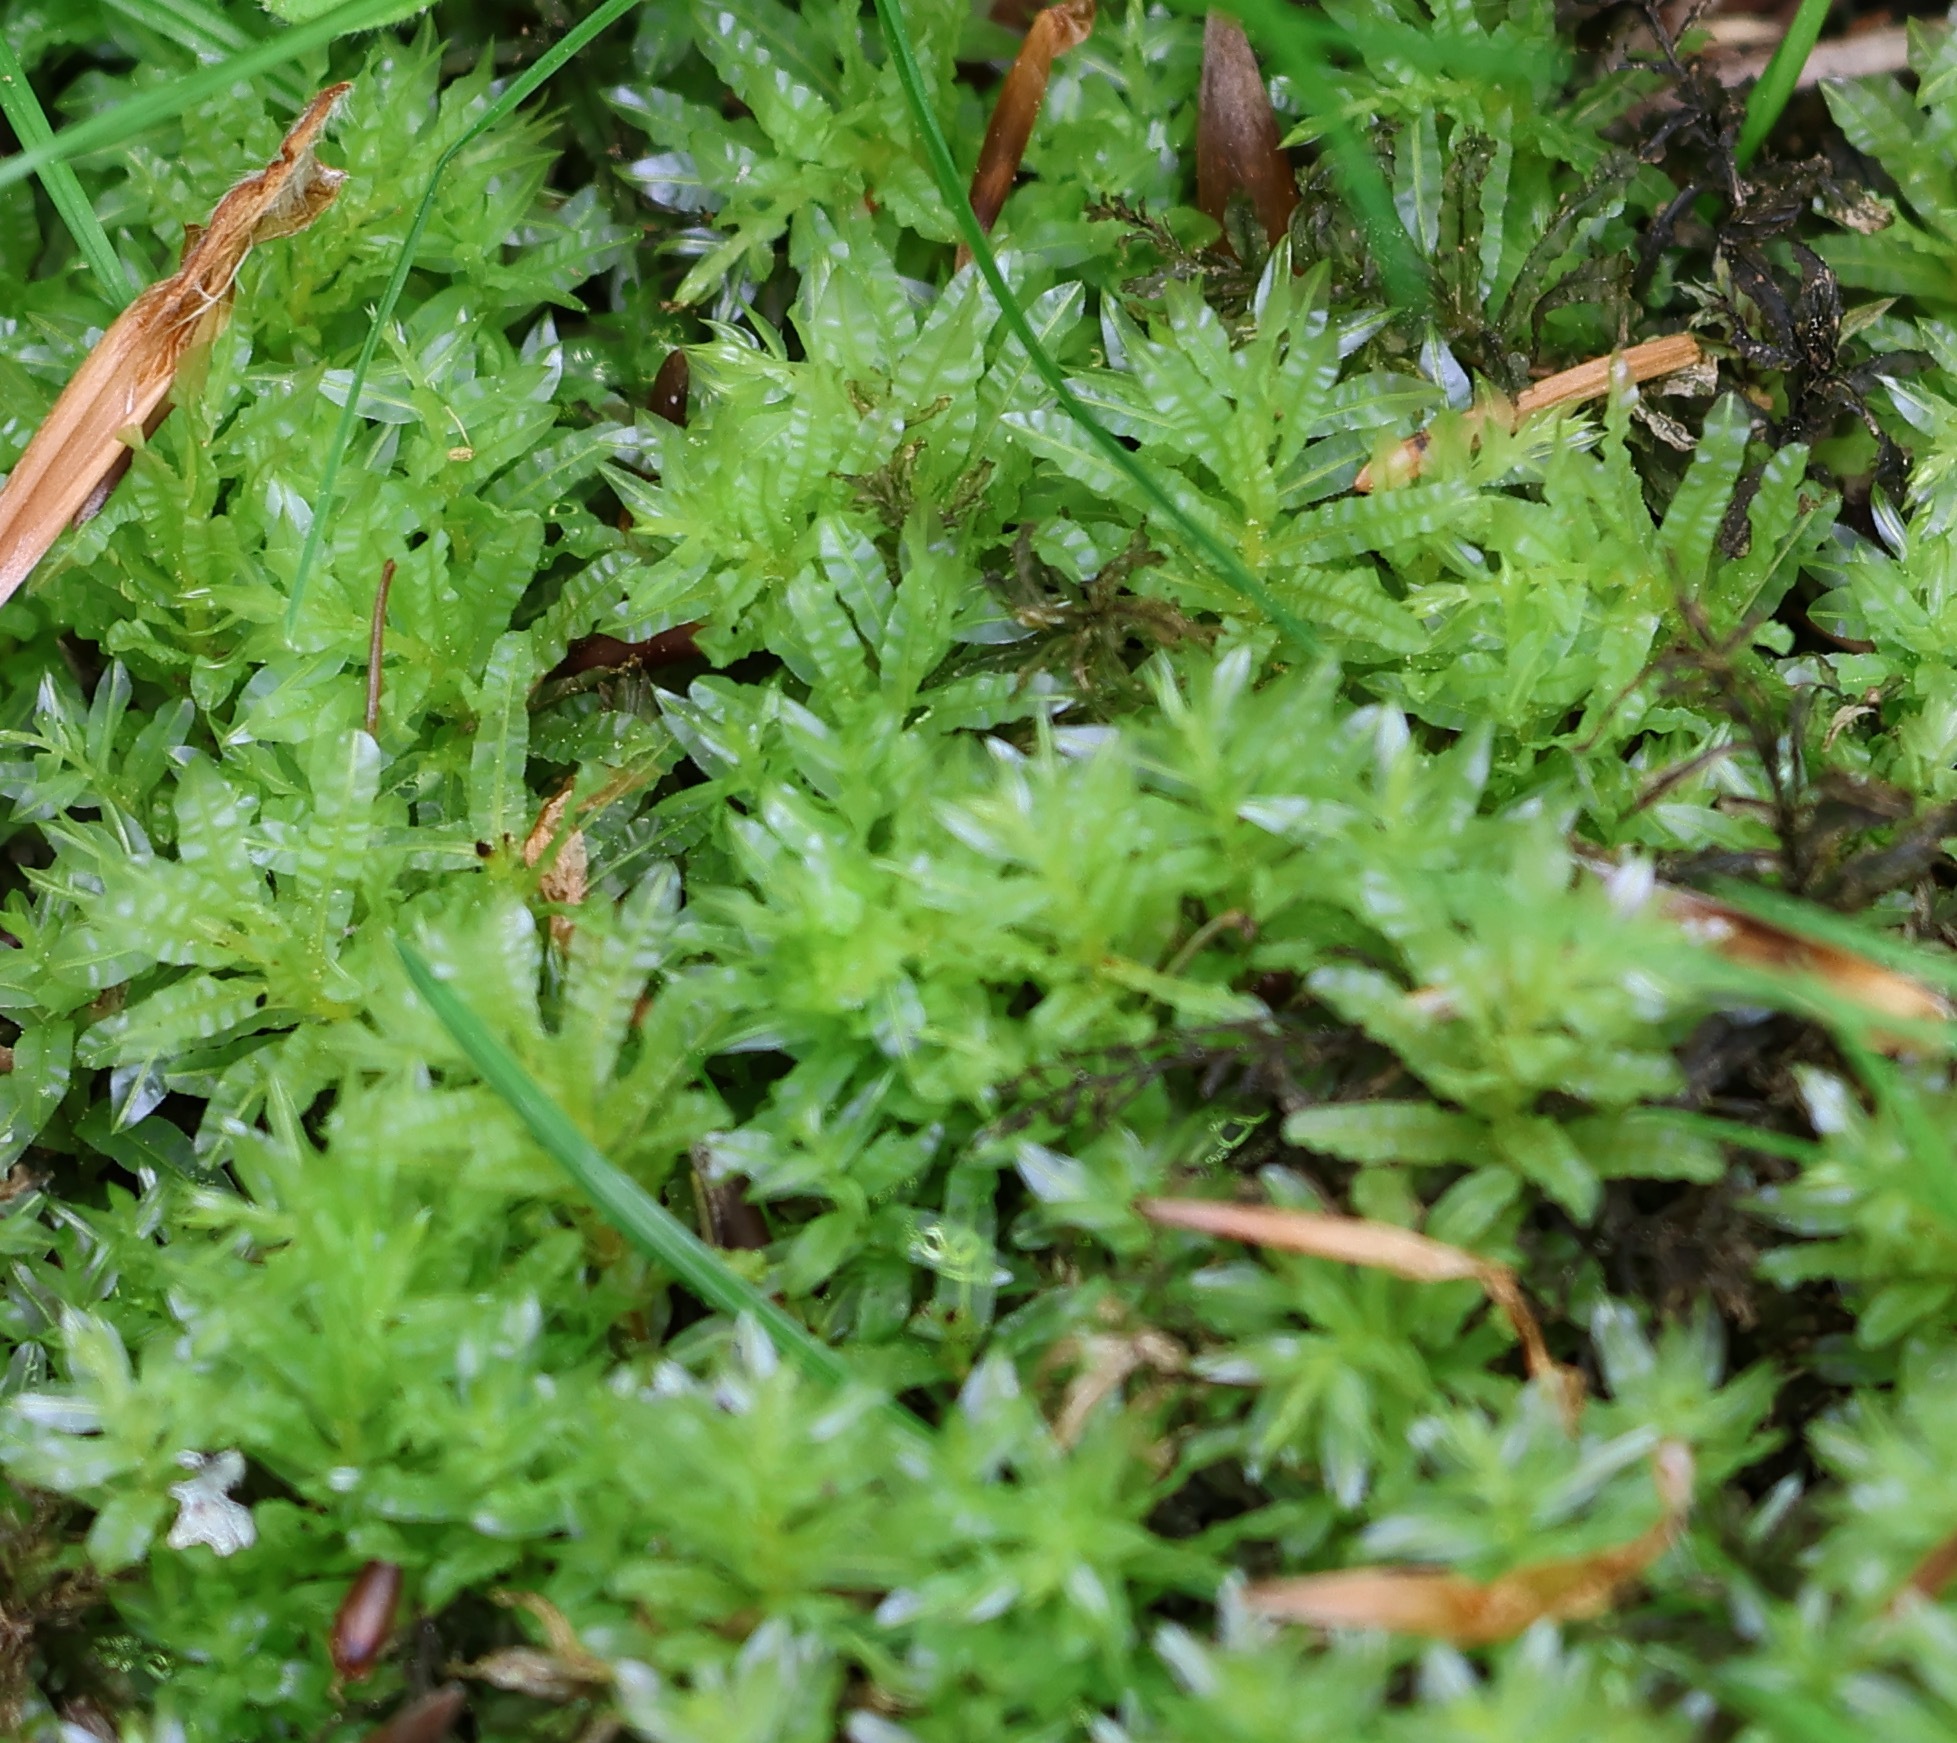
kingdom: Plantae
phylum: Bryophyta
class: Bryopsida
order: Bryales
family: Mniaceae
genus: Plagiomnium
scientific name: Plagiomnium undulatum
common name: Hart's-tongue thyme-moss
